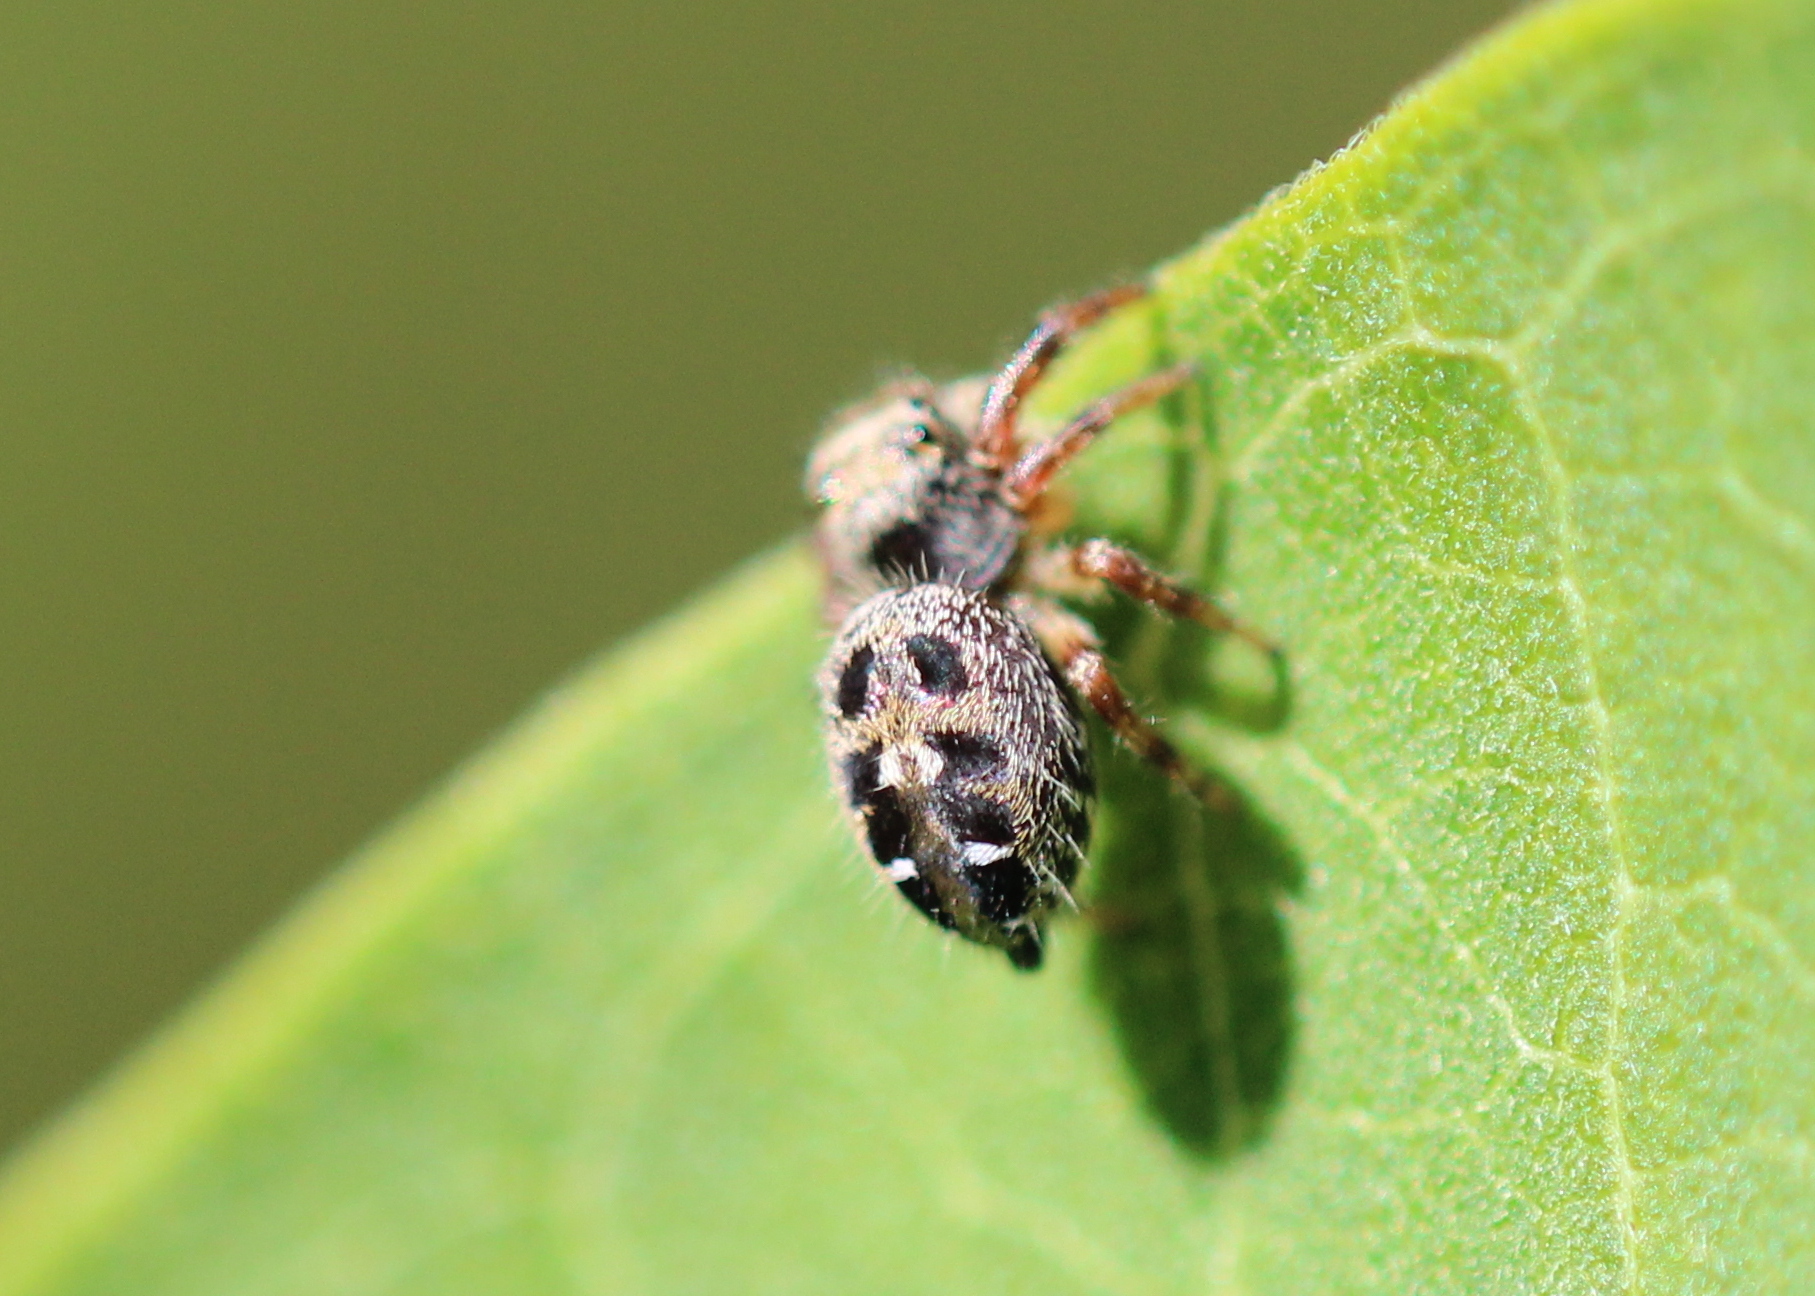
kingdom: Animalia
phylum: Arthropoda
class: Arachnida
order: Araneae
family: Salticidae
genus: Phidippus
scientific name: Phidippus princeps
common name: Grayish jumping spider
